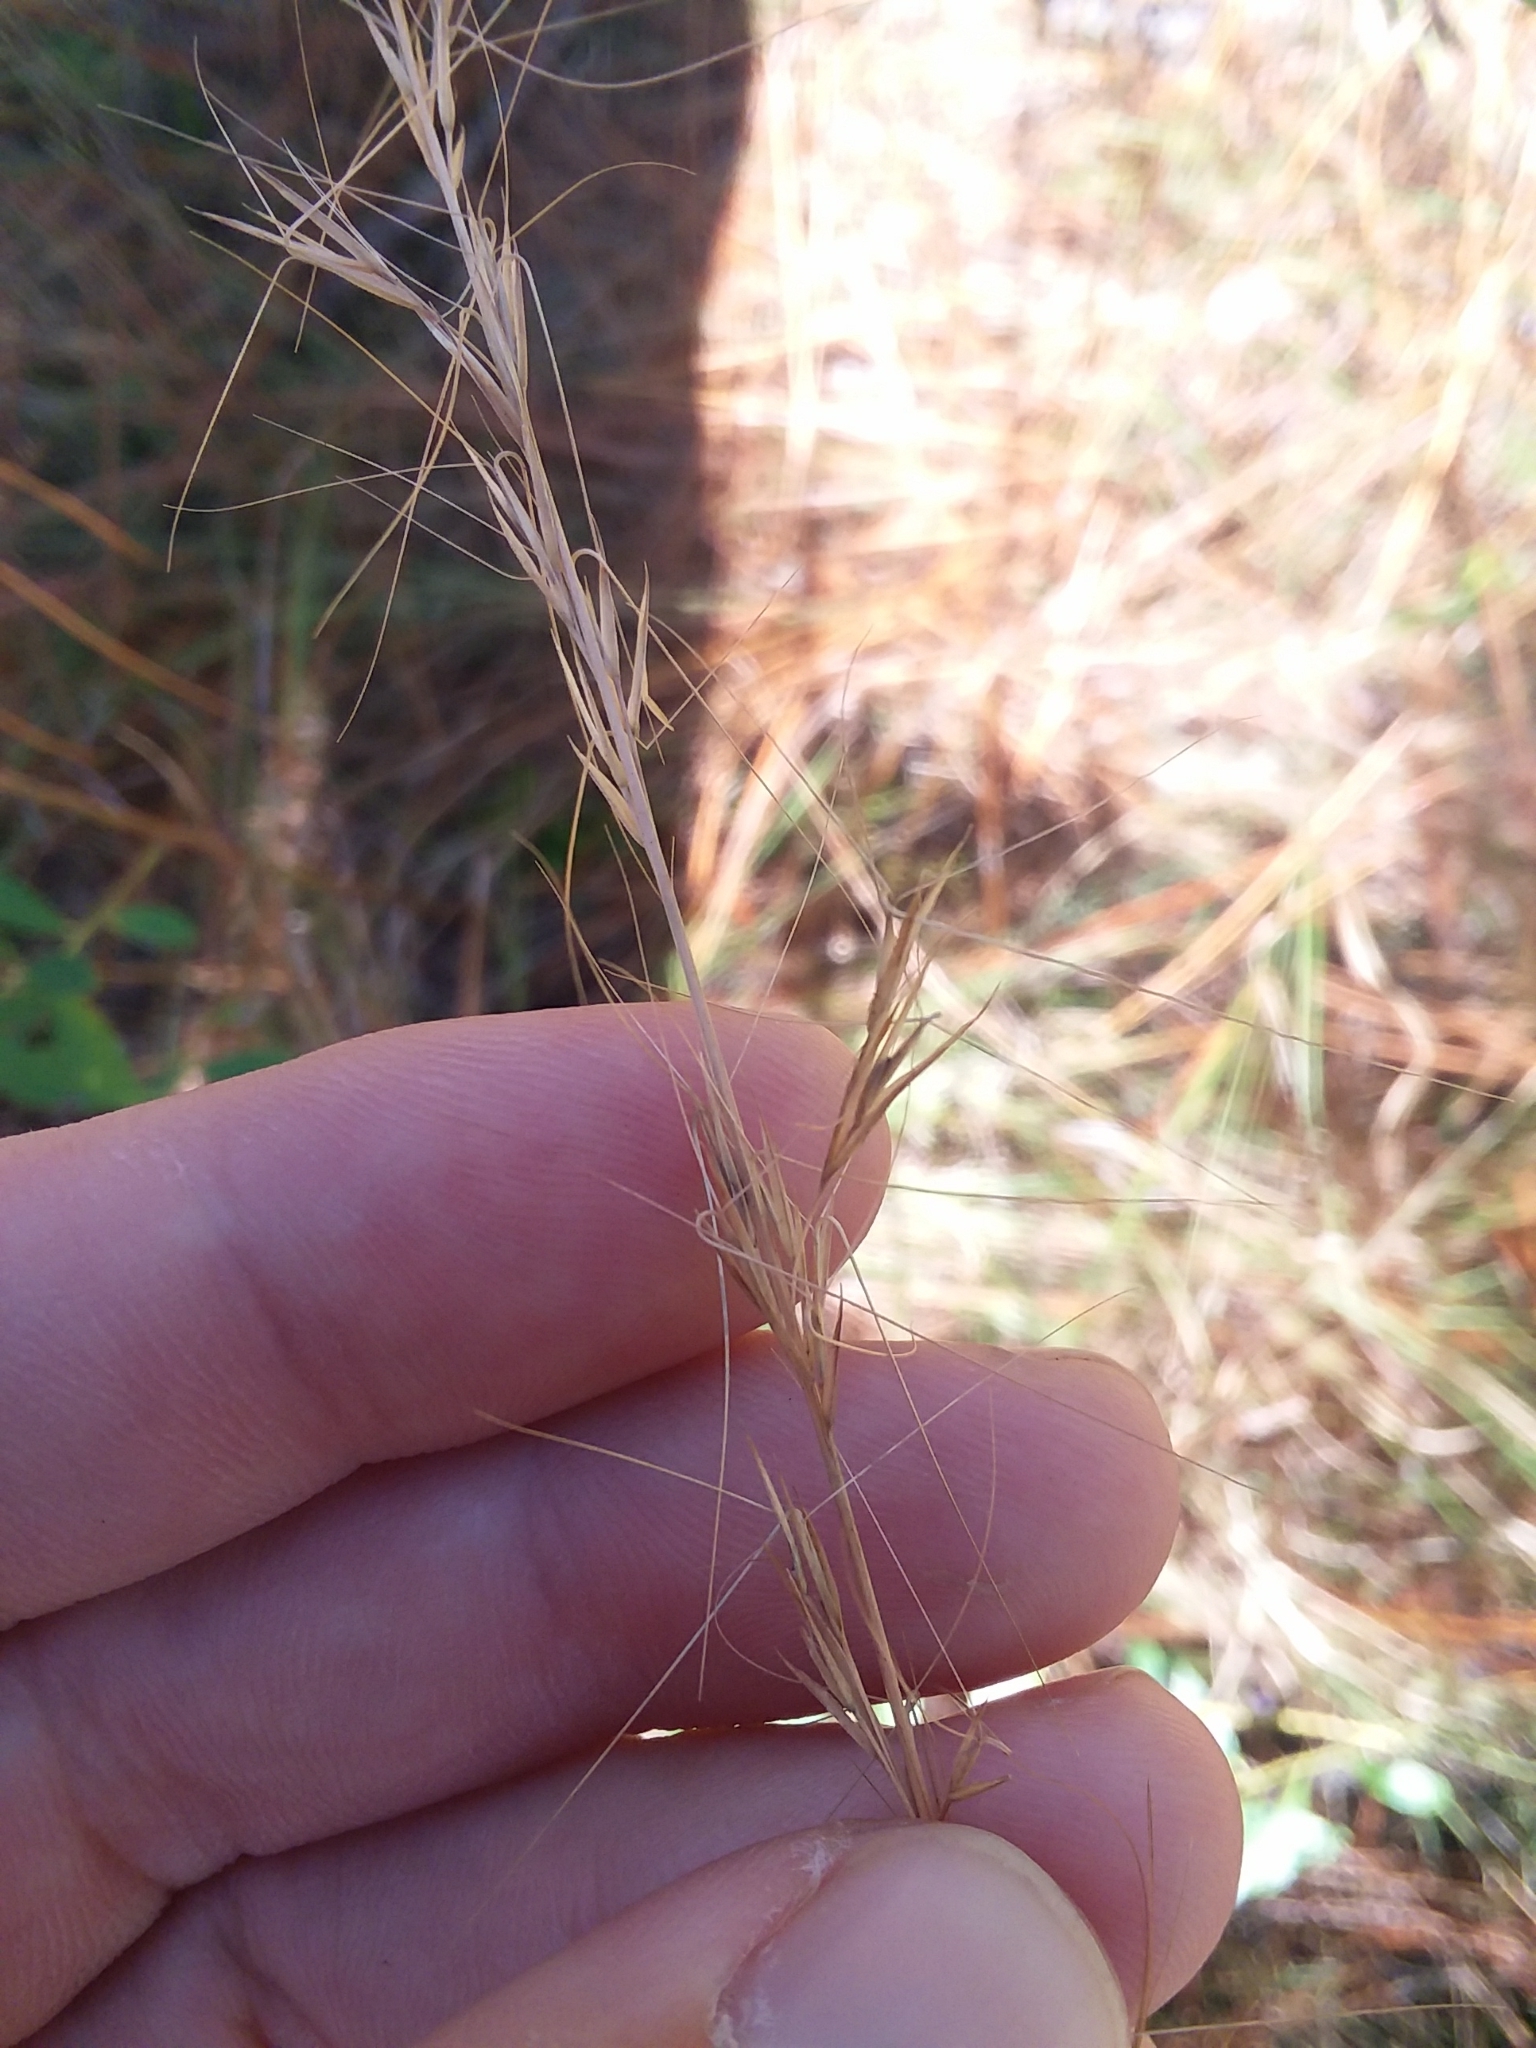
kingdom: Plantae
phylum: Tracheophyta
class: Liliopsida
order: Poales
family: Poaceae
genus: Aristida
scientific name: Aristida virgata
